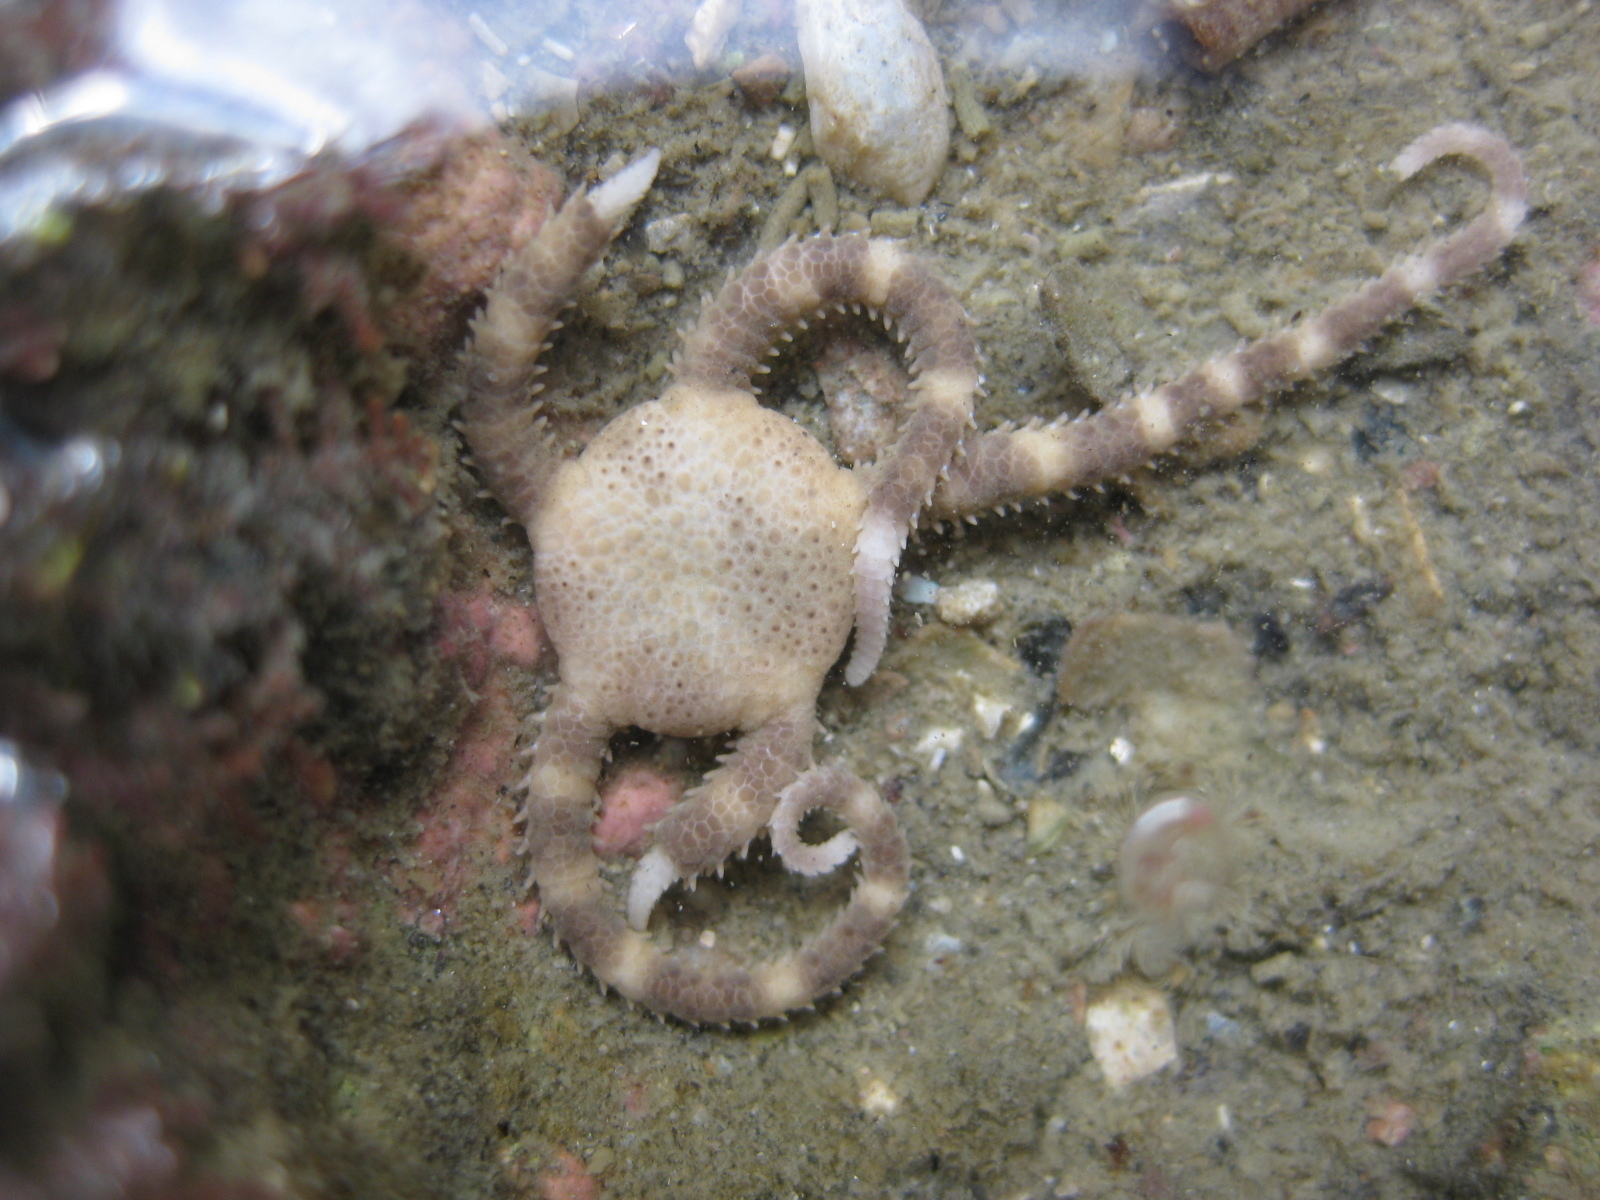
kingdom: Animalia
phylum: Echinodermata
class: Ophiuroidea
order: Amphilepidida
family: Hemieuryalidae
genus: Ophioplocus
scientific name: Ophioplocus huttoni
